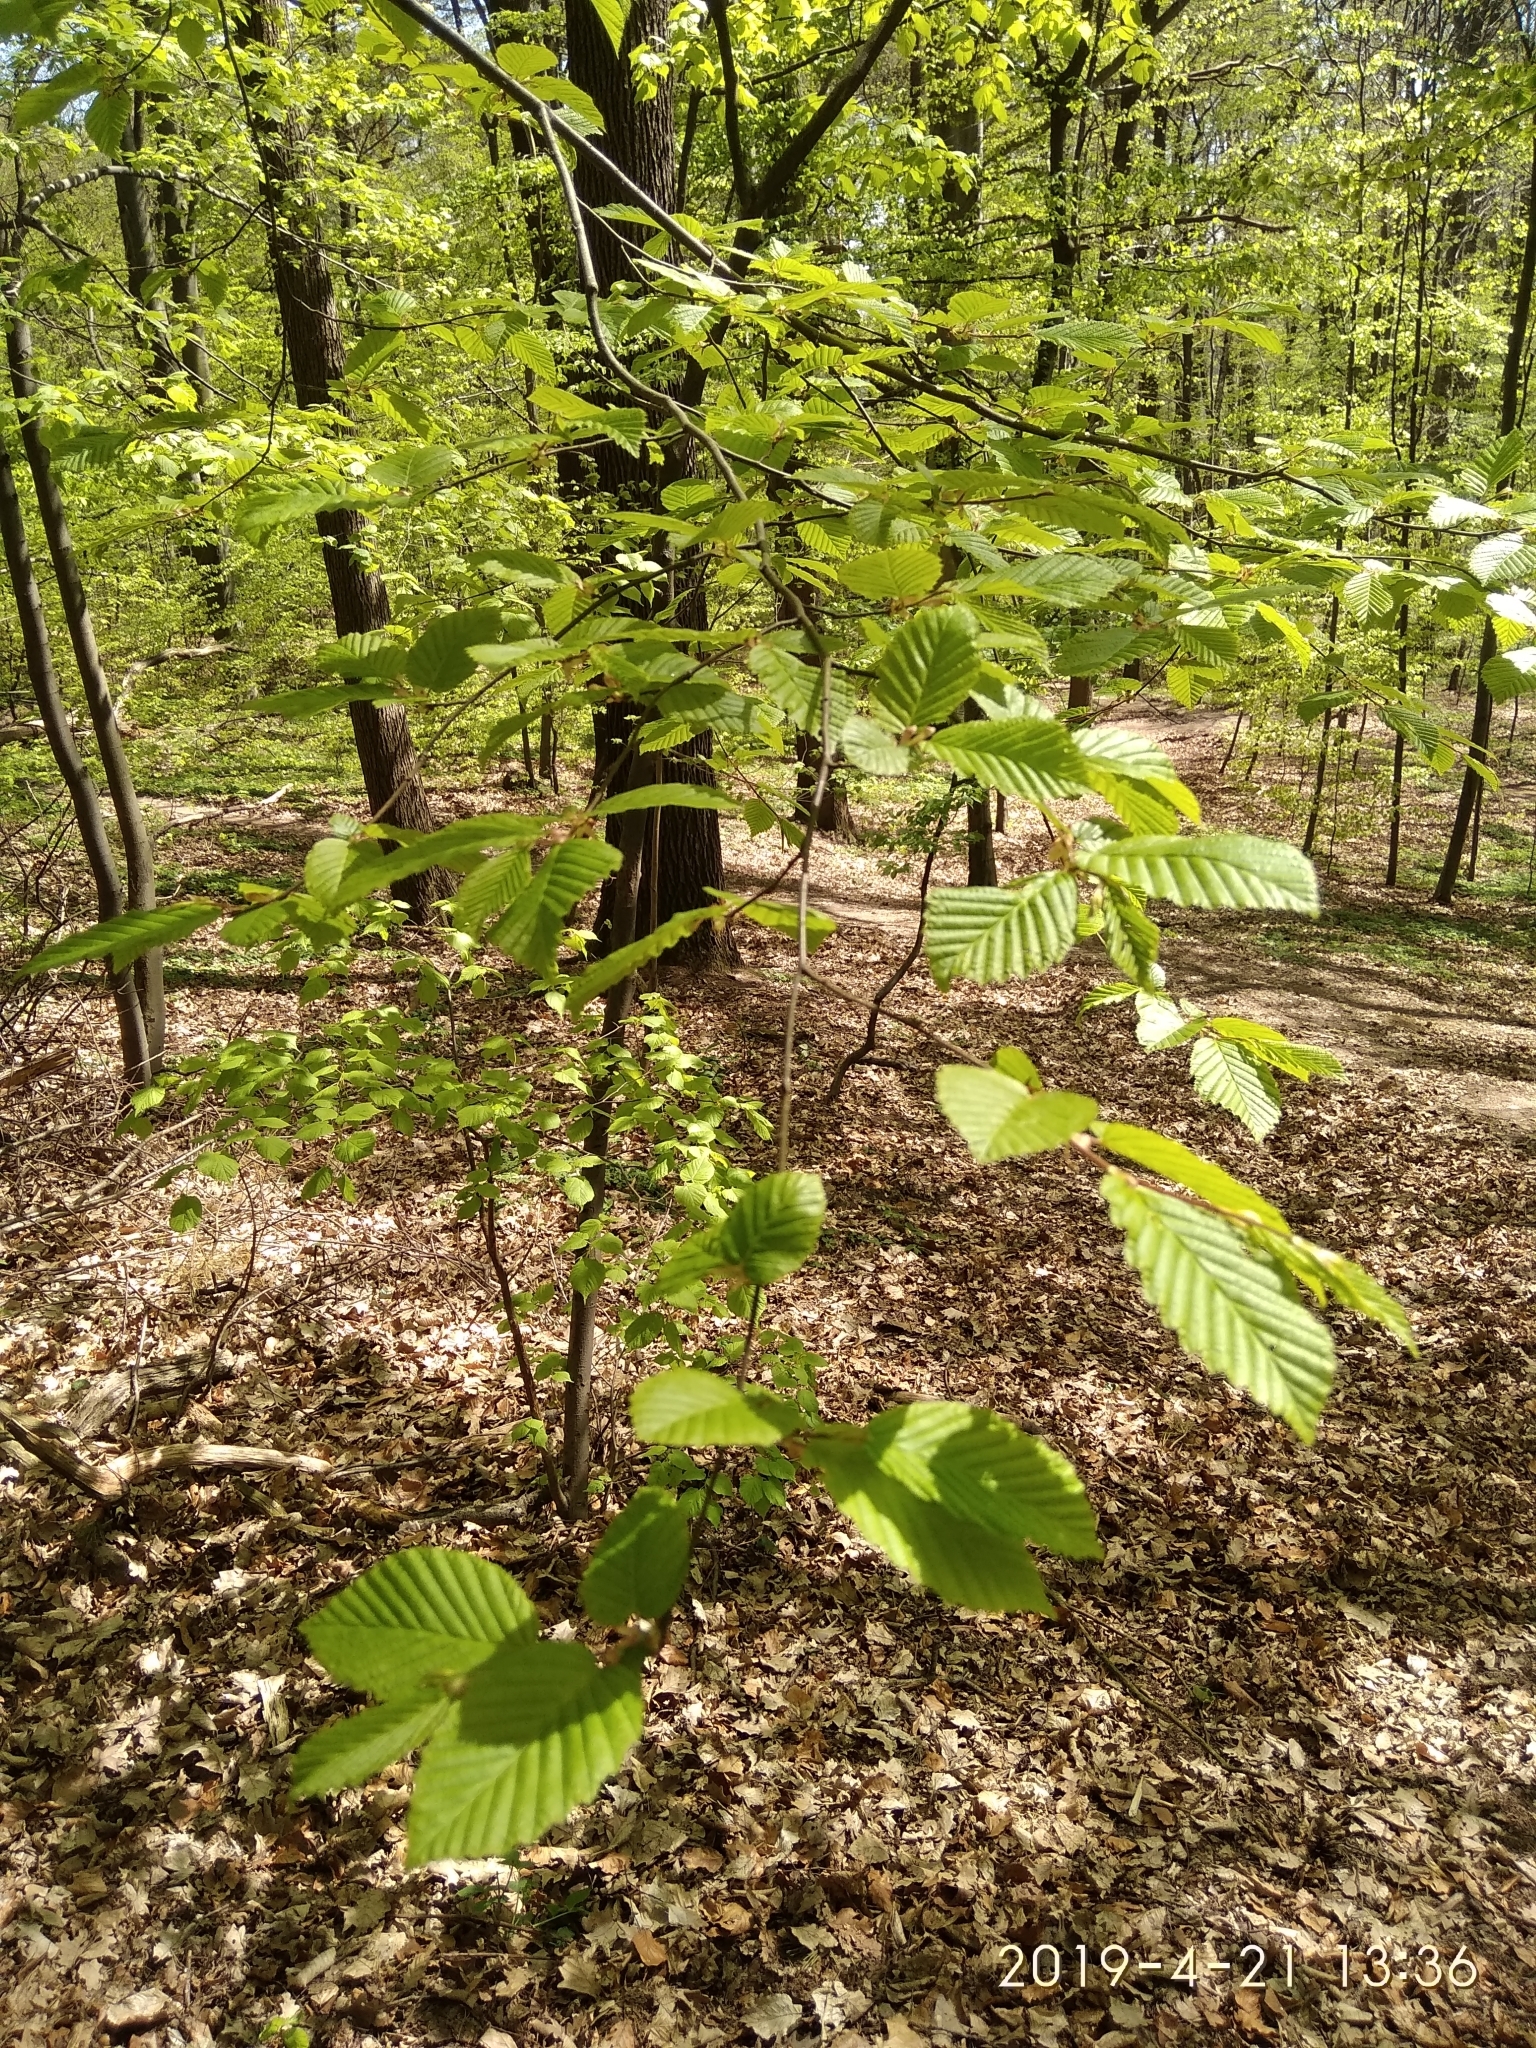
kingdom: Plantae
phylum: Tracheophyta
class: Magnoliopsida
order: Fagales
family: Betulaceae
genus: Carpinus
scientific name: Carpinus betulus
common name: Hornbeam
